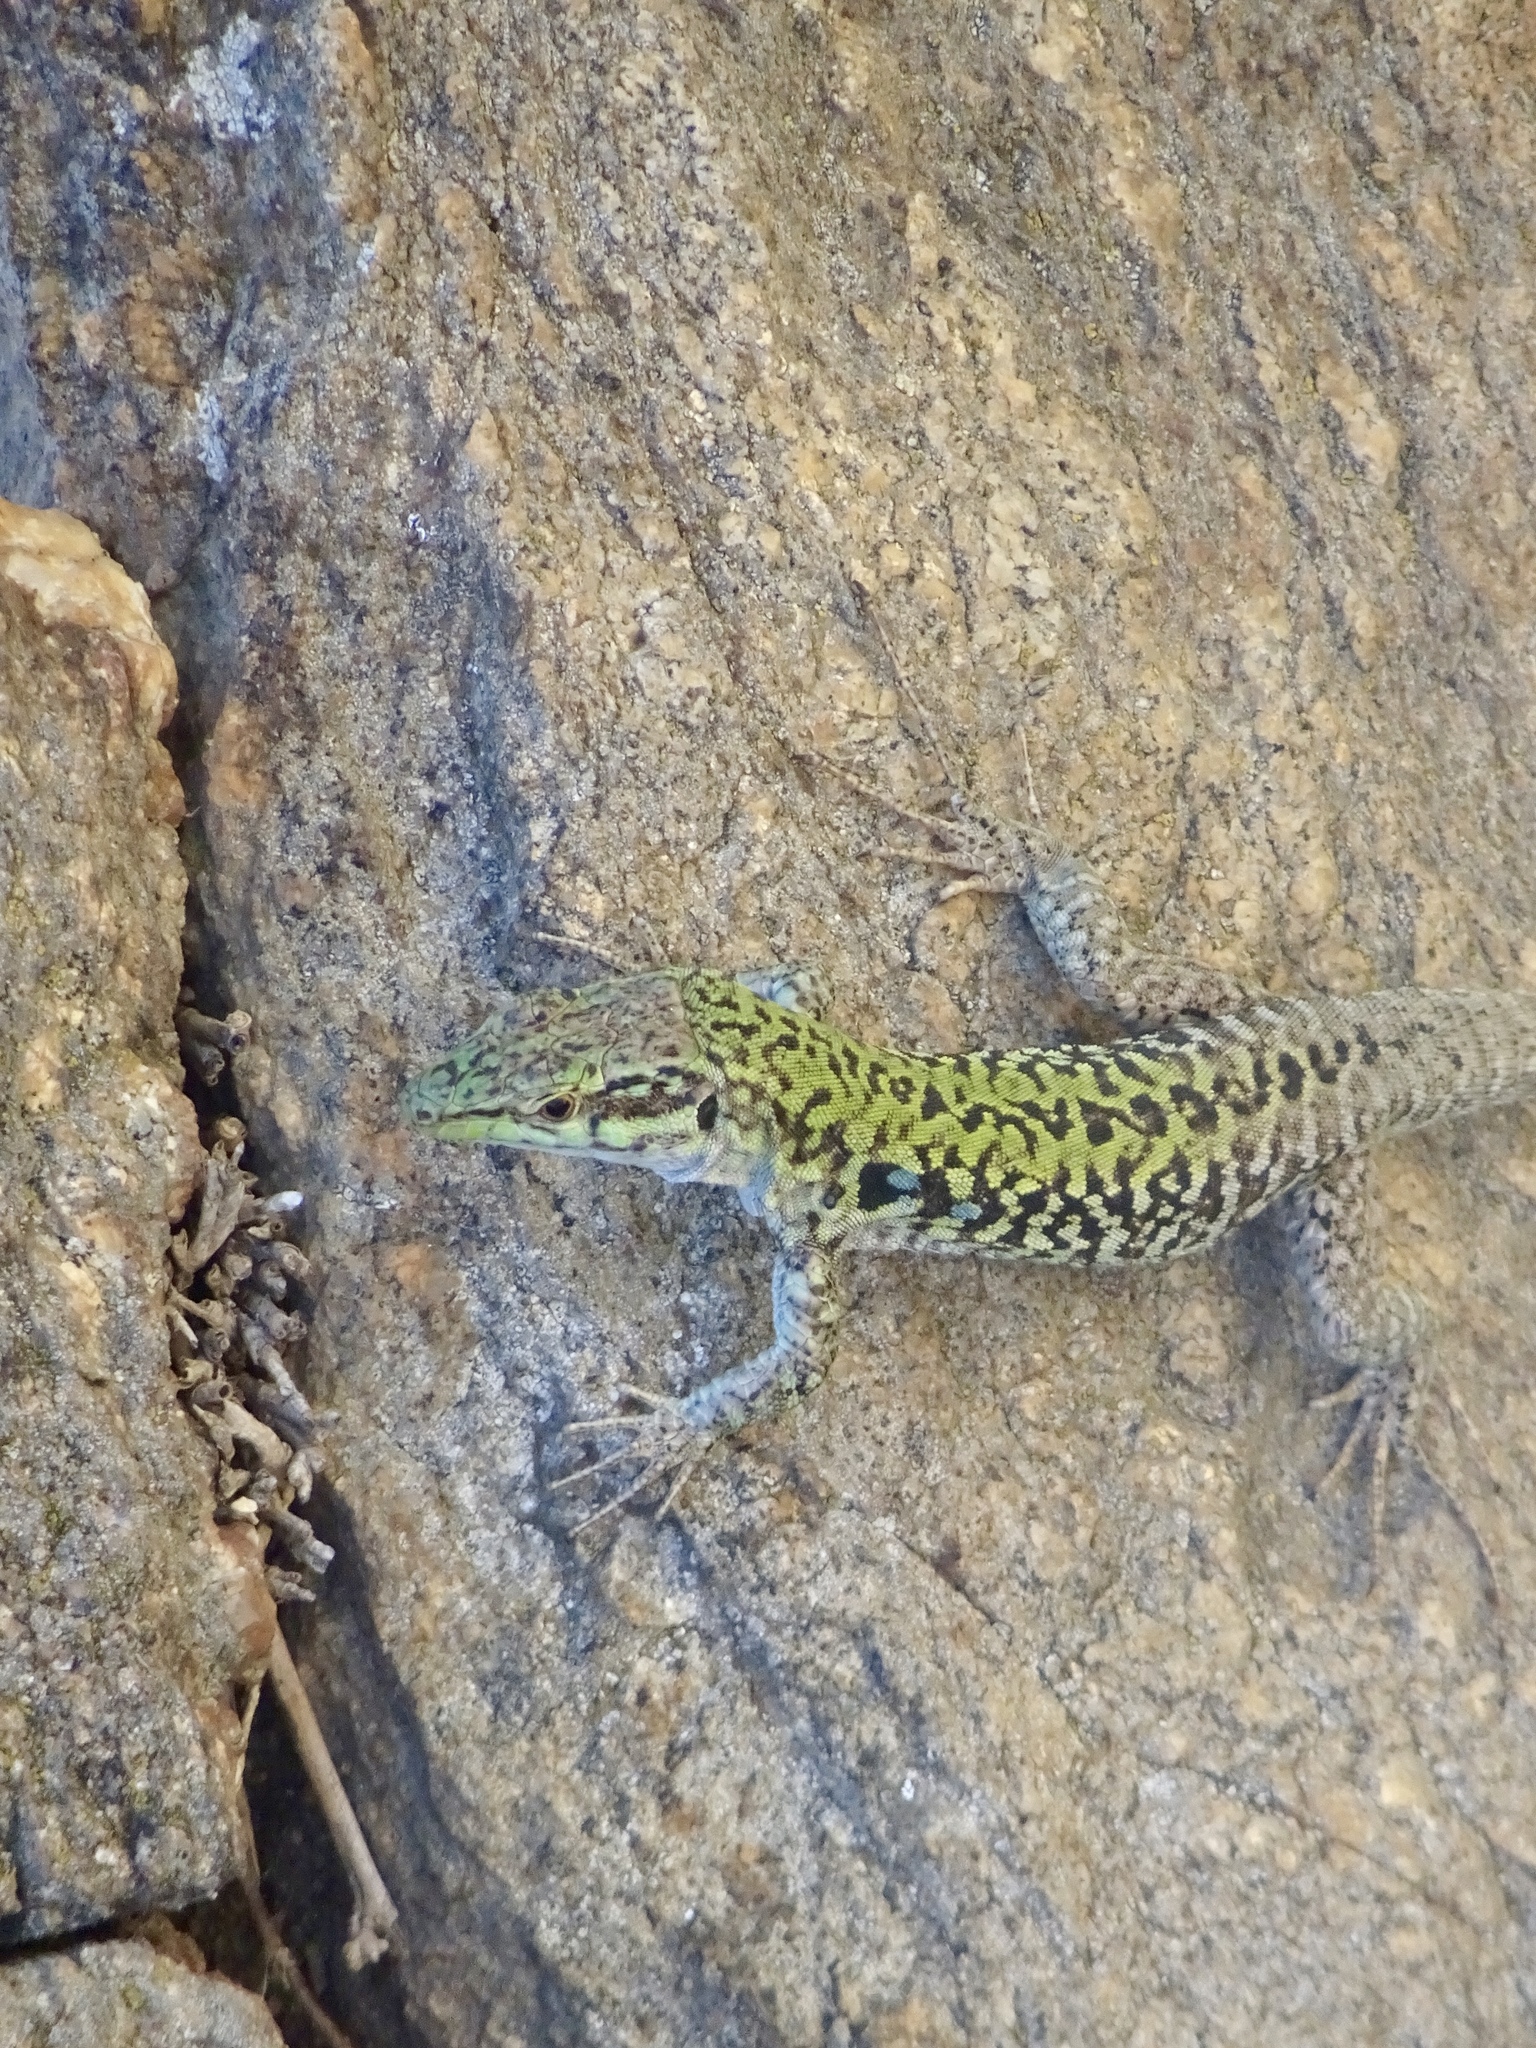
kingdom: Animalia
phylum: Chordata
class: Squamata
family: Lacertidae
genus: Podarcis
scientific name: Podarcis siculus
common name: Italian wall lizard
